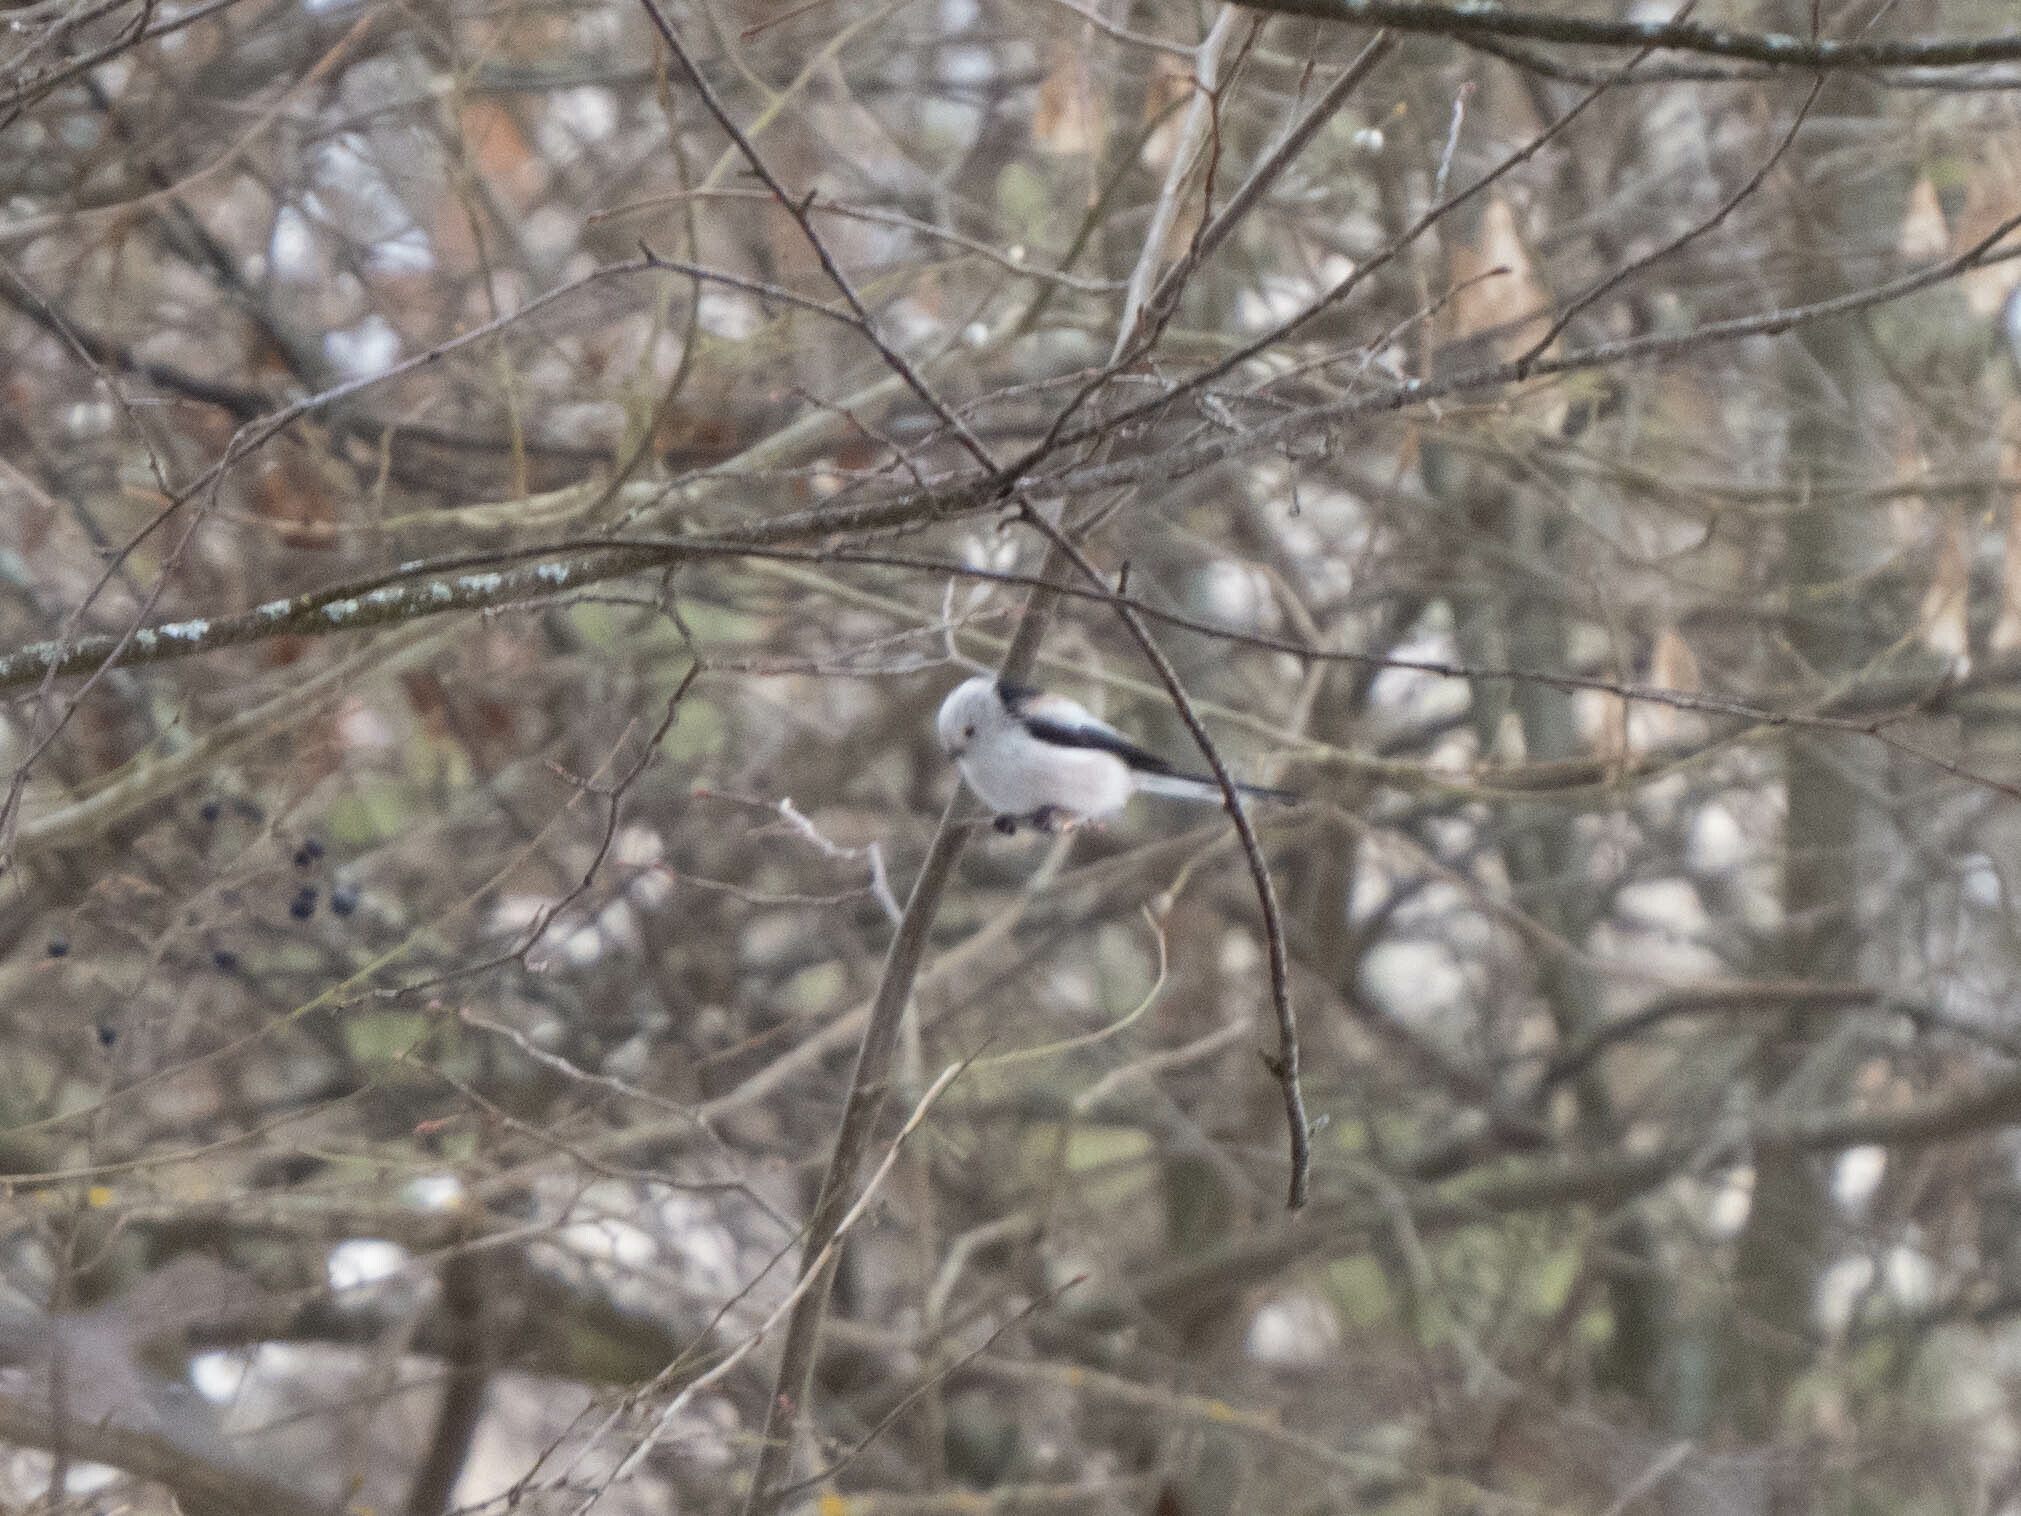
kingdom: Animalia
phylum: Chordata
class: Aves
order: Passeriformes
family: Aegithalidae
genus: Aegithalos
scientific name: Aegithalos caudatus
